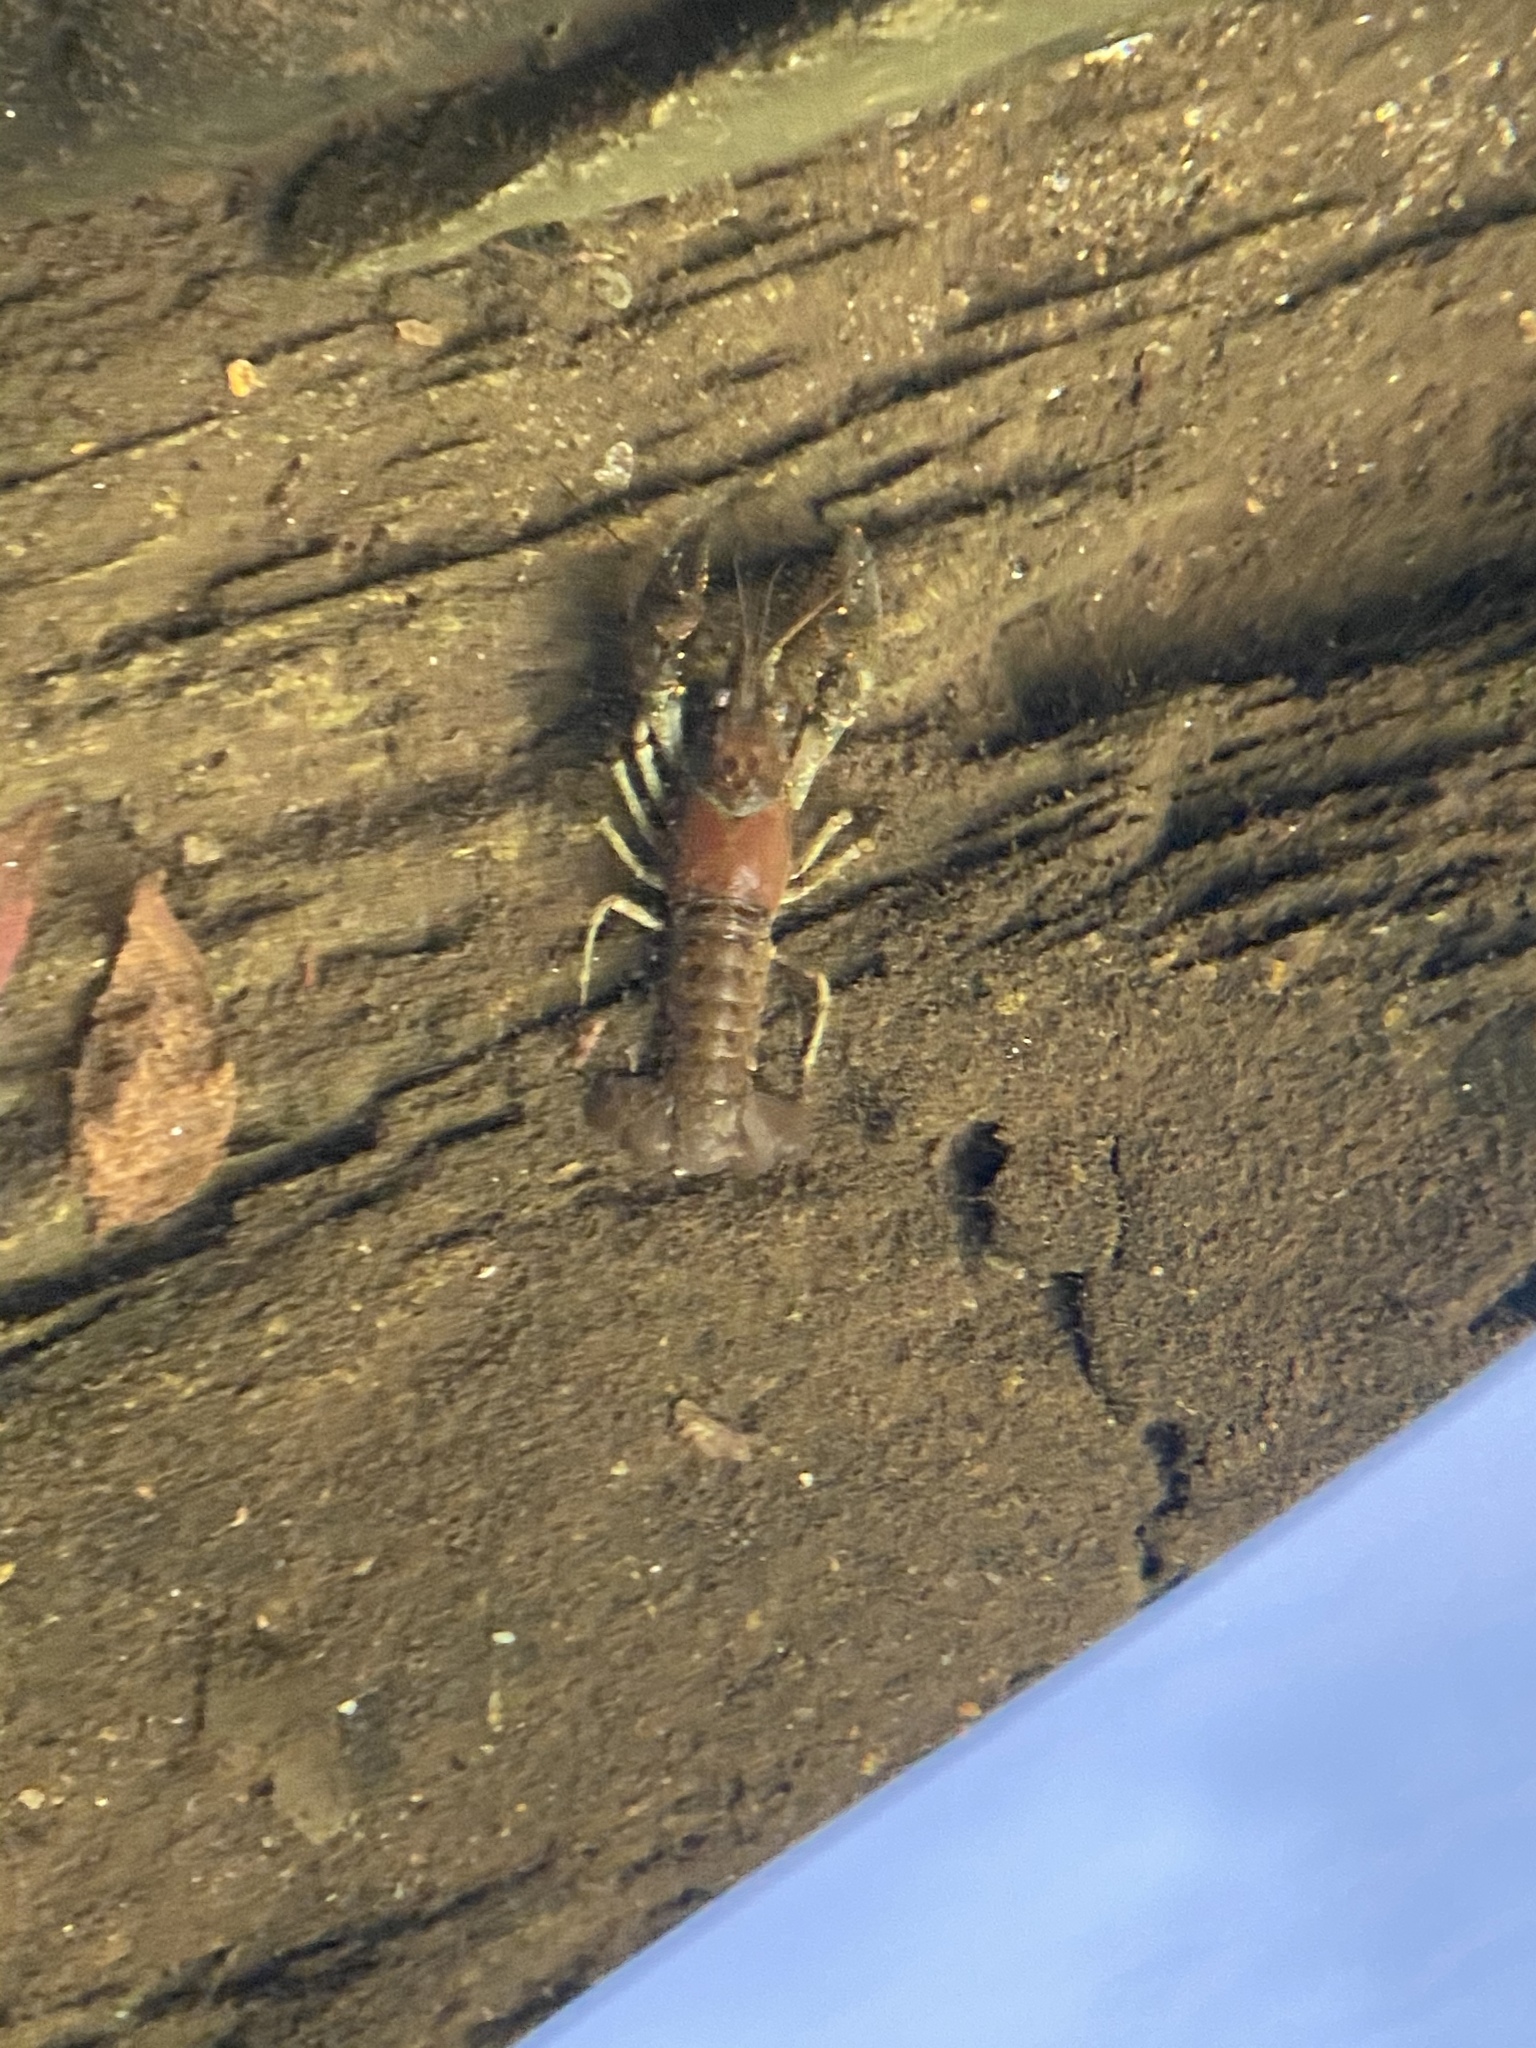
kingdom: Animalia
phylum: Arthropoda
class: Malacostraca
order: Decapoda
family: Cambaridae
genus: Faxonius
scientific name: Faxonius virilis
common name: Virile crayfish
